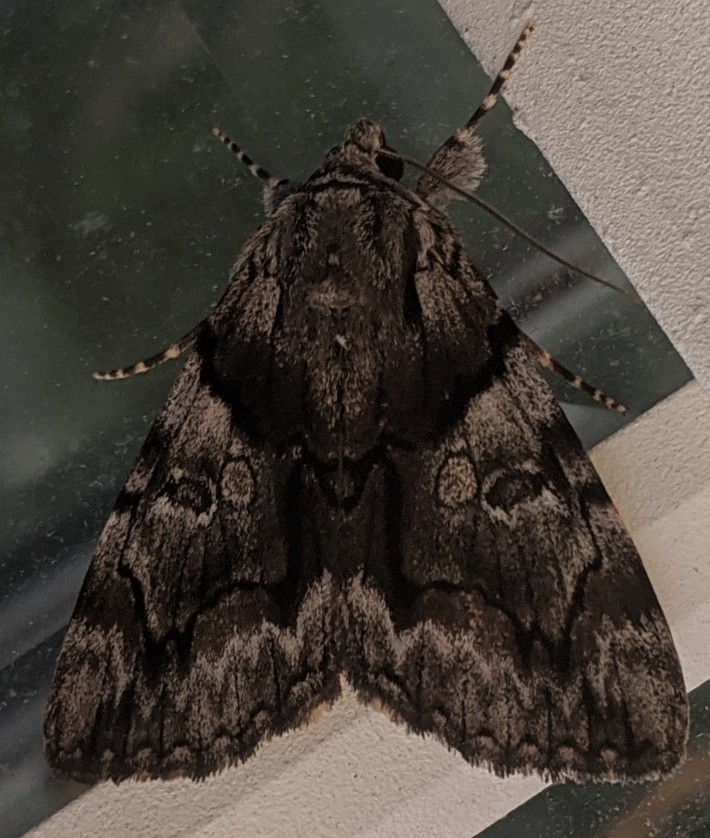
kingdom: Animalia
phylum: Arthropoda
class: Insecta
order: Lepidoptera
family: Erebidae
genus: Catocala
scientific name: Catocala blandula
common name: Charming underwing
